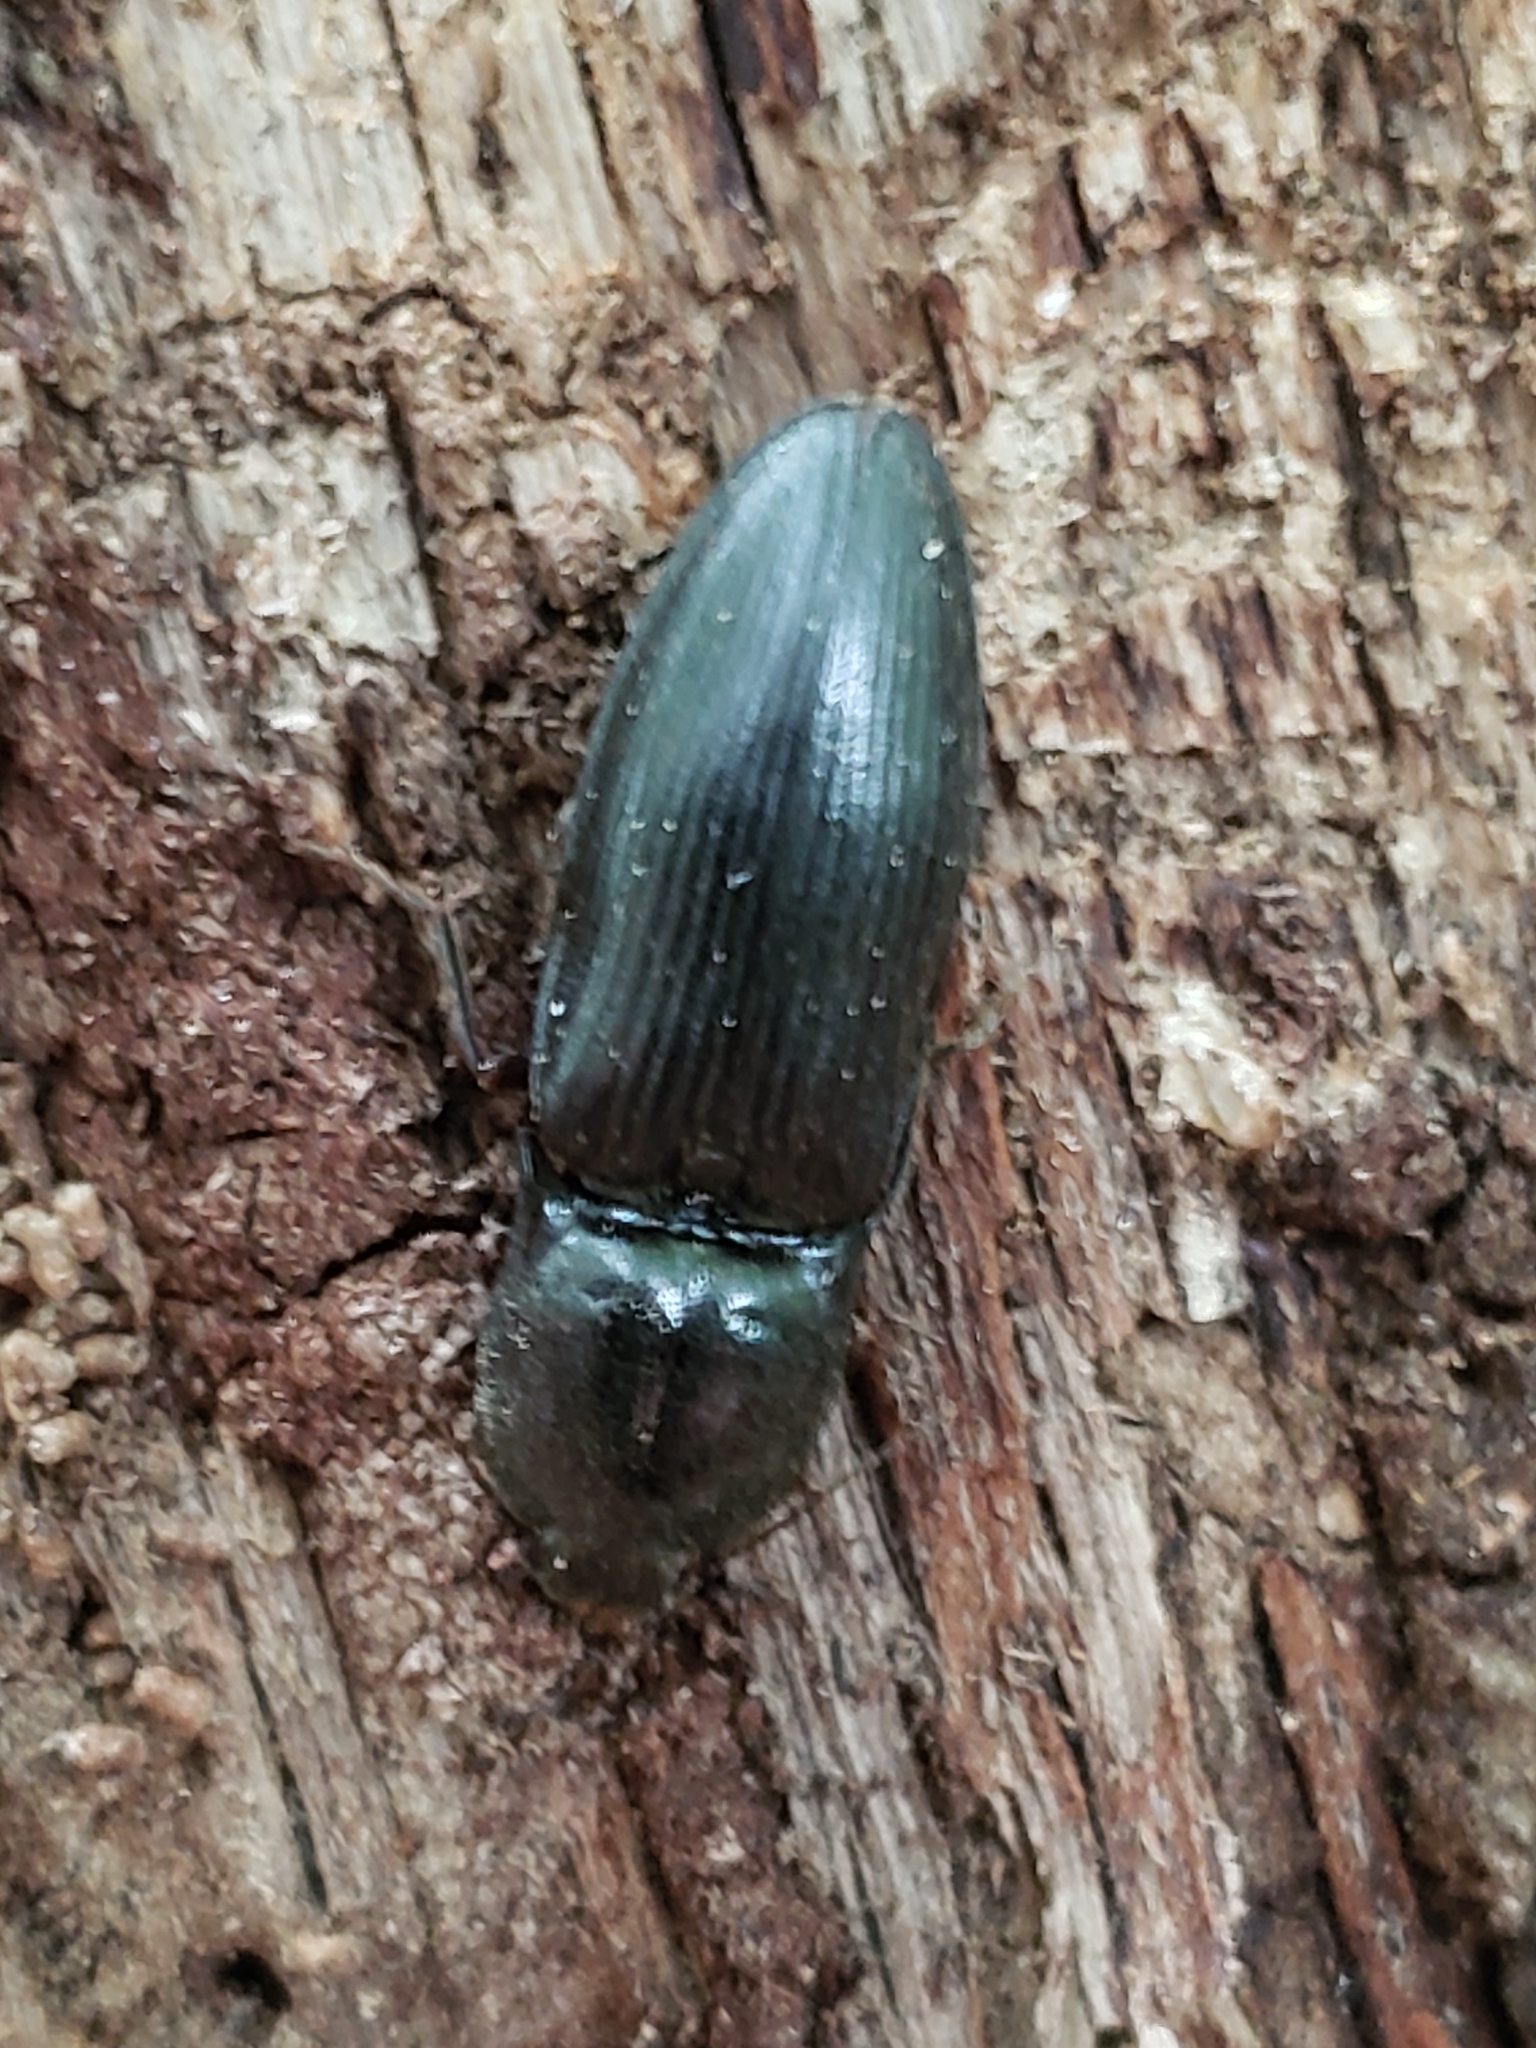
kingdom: Animalia
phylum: Arthropoda
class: Insecta
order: Coleoptera
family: Elateridae
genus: Neopristilophus
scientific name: Neopristilophus
